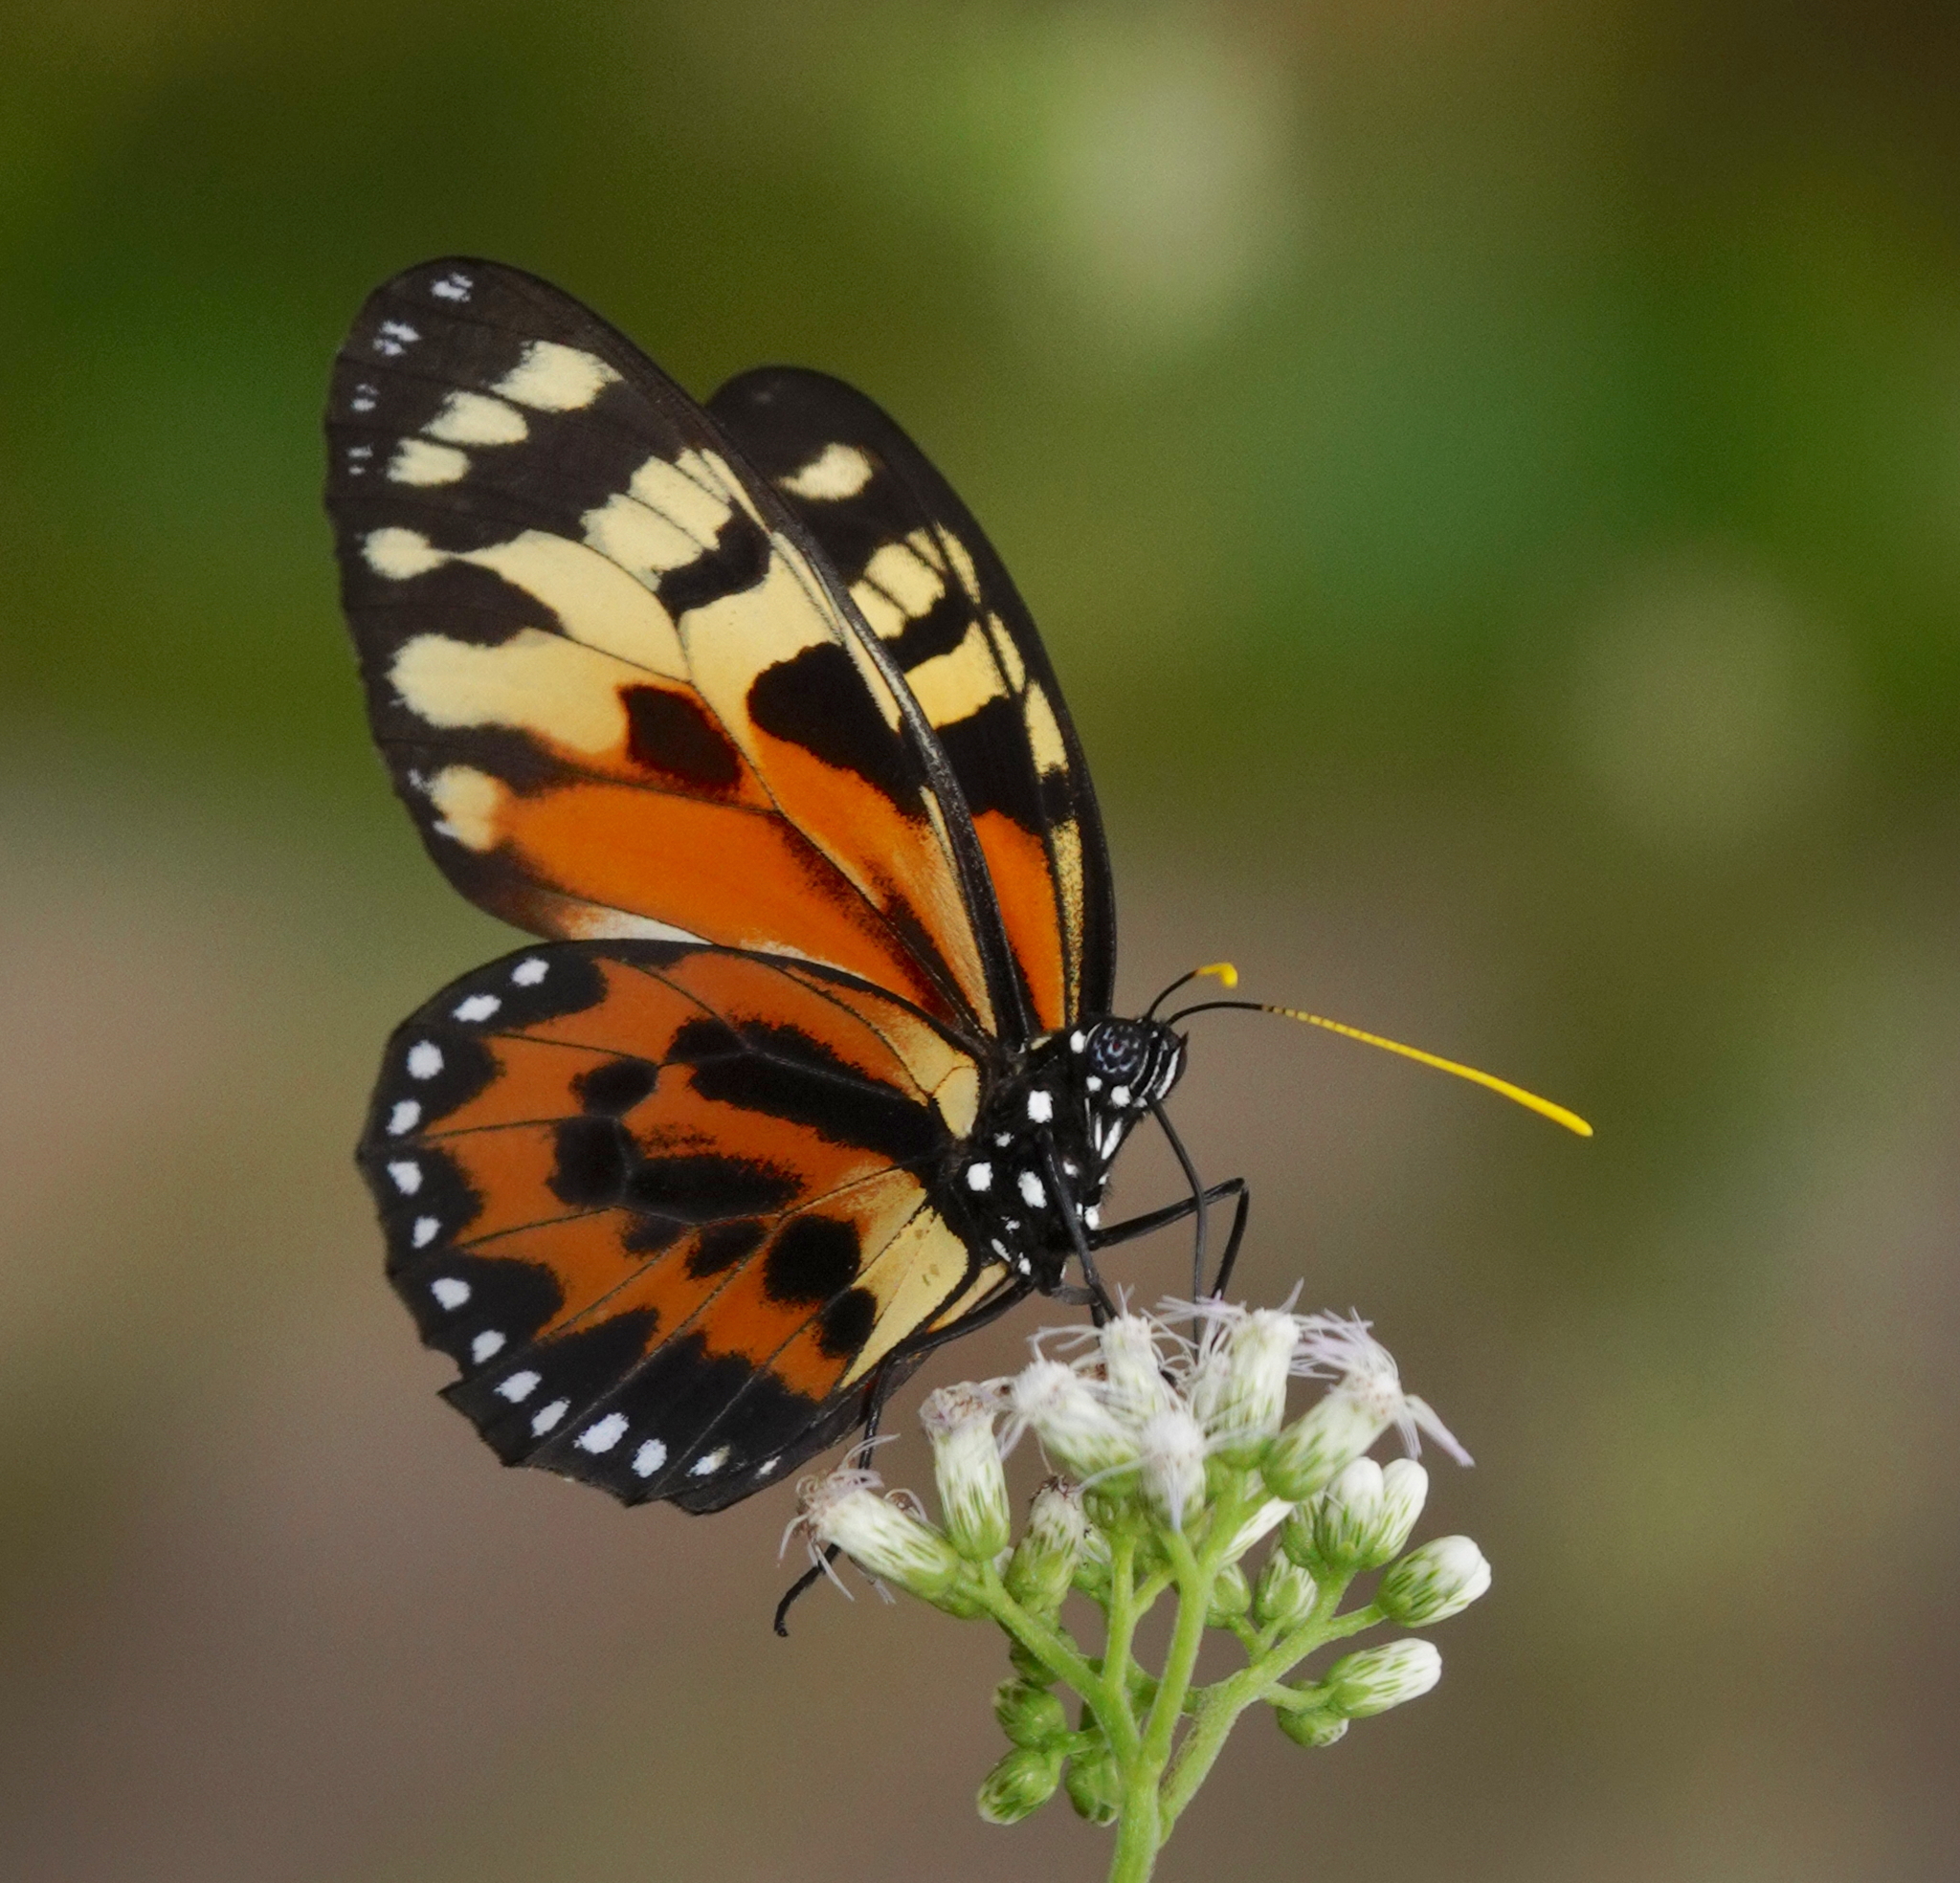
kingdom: Animalia
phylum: Arthropoda
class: Insecta
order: Lepidoptera
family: Nymphalidae
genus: Lycorea
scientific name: Lycorea pasinuntia
